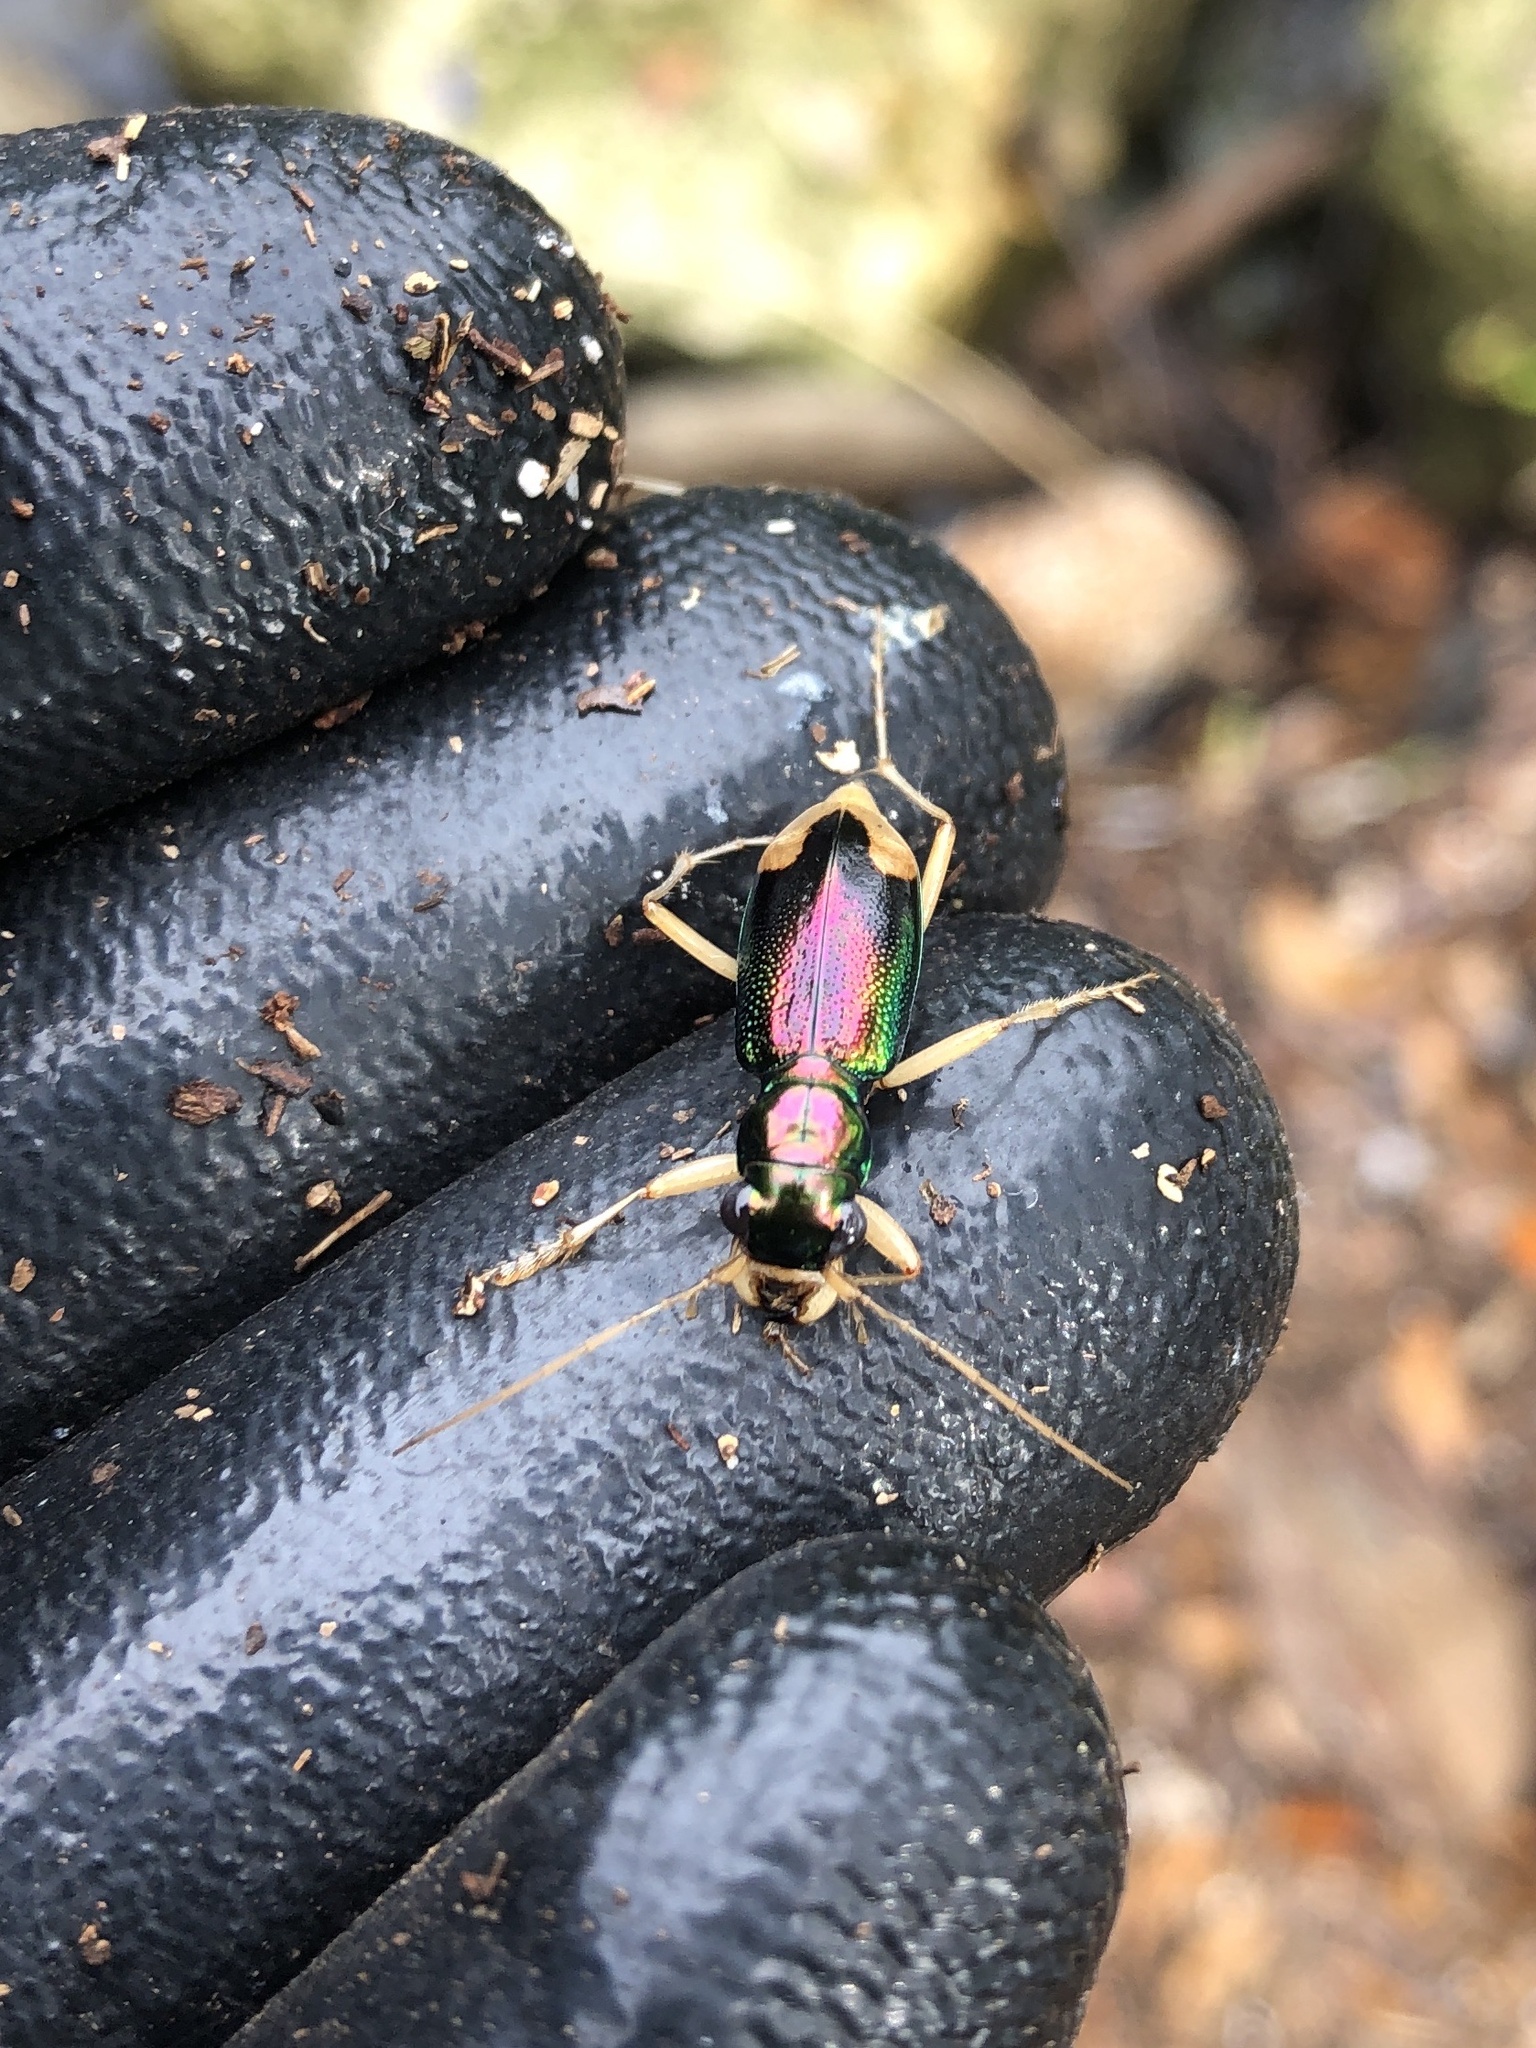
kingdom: Animalia
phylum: Arthropoda
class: Insecta
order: Coleoptera
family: Carabidae
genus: Tetracha
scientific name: Tetracha carolina
